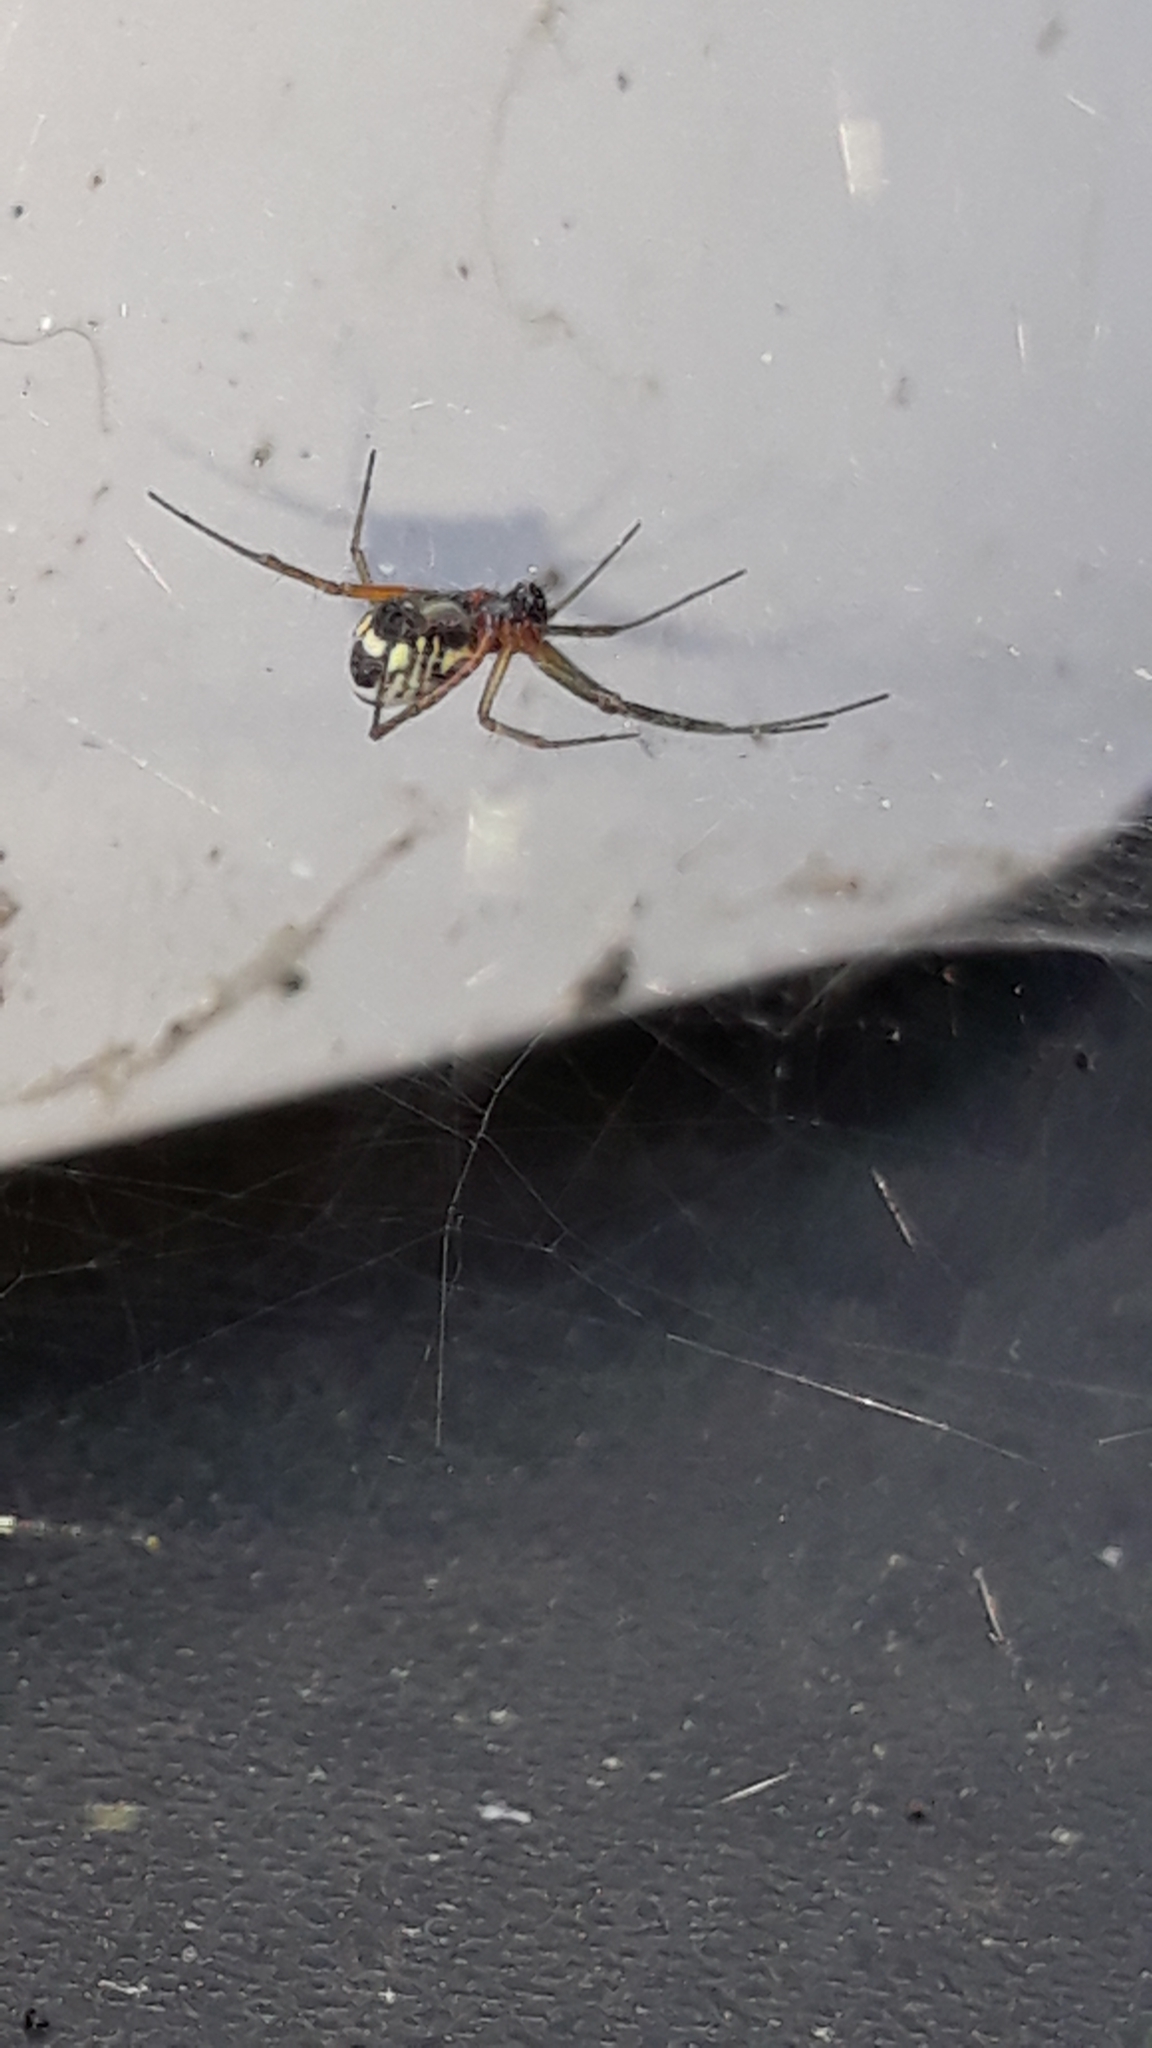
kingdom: Animalia
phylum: Arthropoda
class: Arachnida
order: Araneae
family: Linyphiidae
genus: Frontinellina
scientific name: Frontinellina frutetorum
